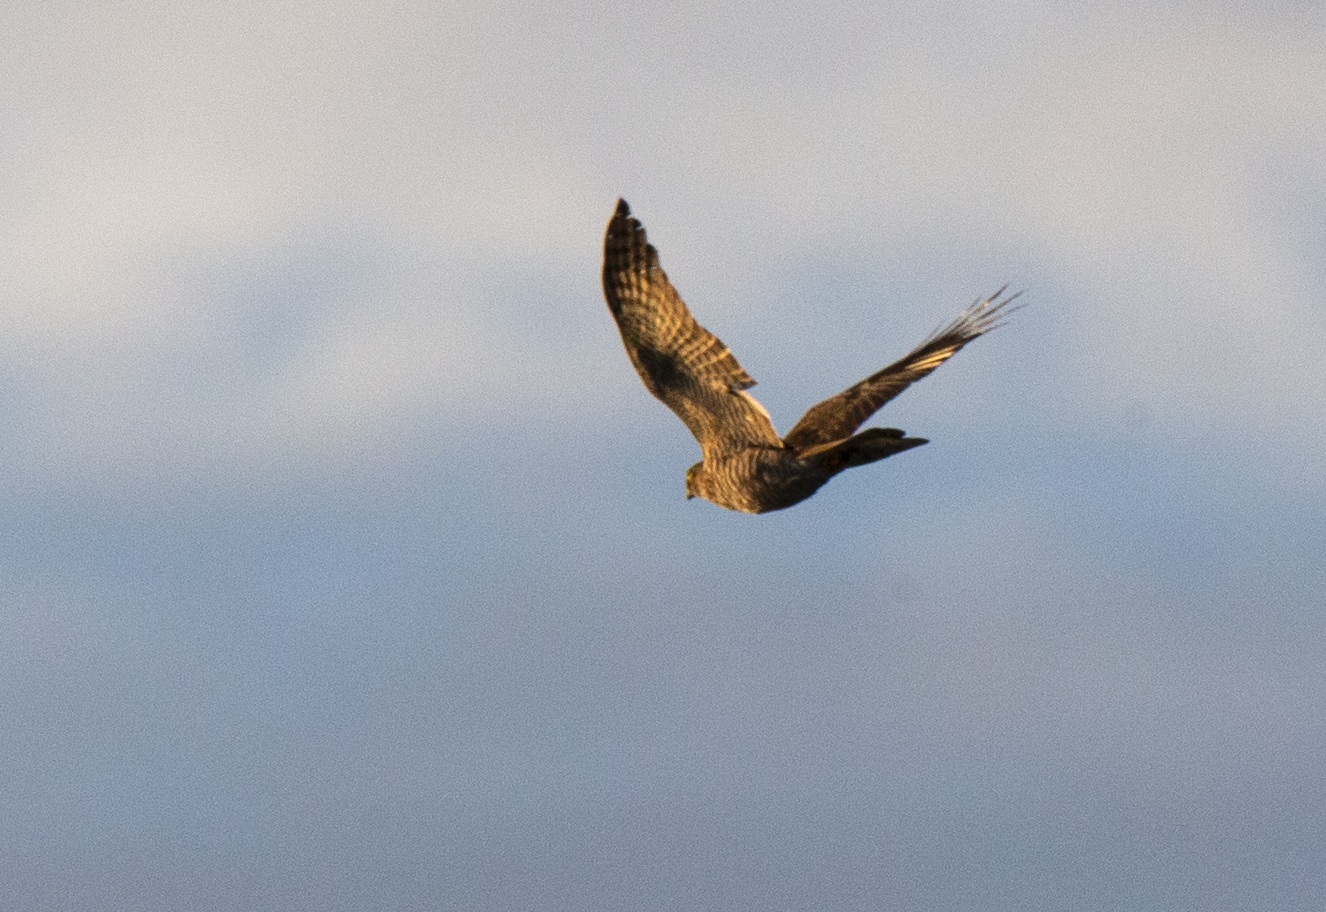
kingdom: Animalia
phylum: Chordata
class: Aves
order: Accipitriformes
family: Accipitridae
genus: Accipiter
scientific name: Accipiter nisus
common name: Eurasian sparrowhawk
